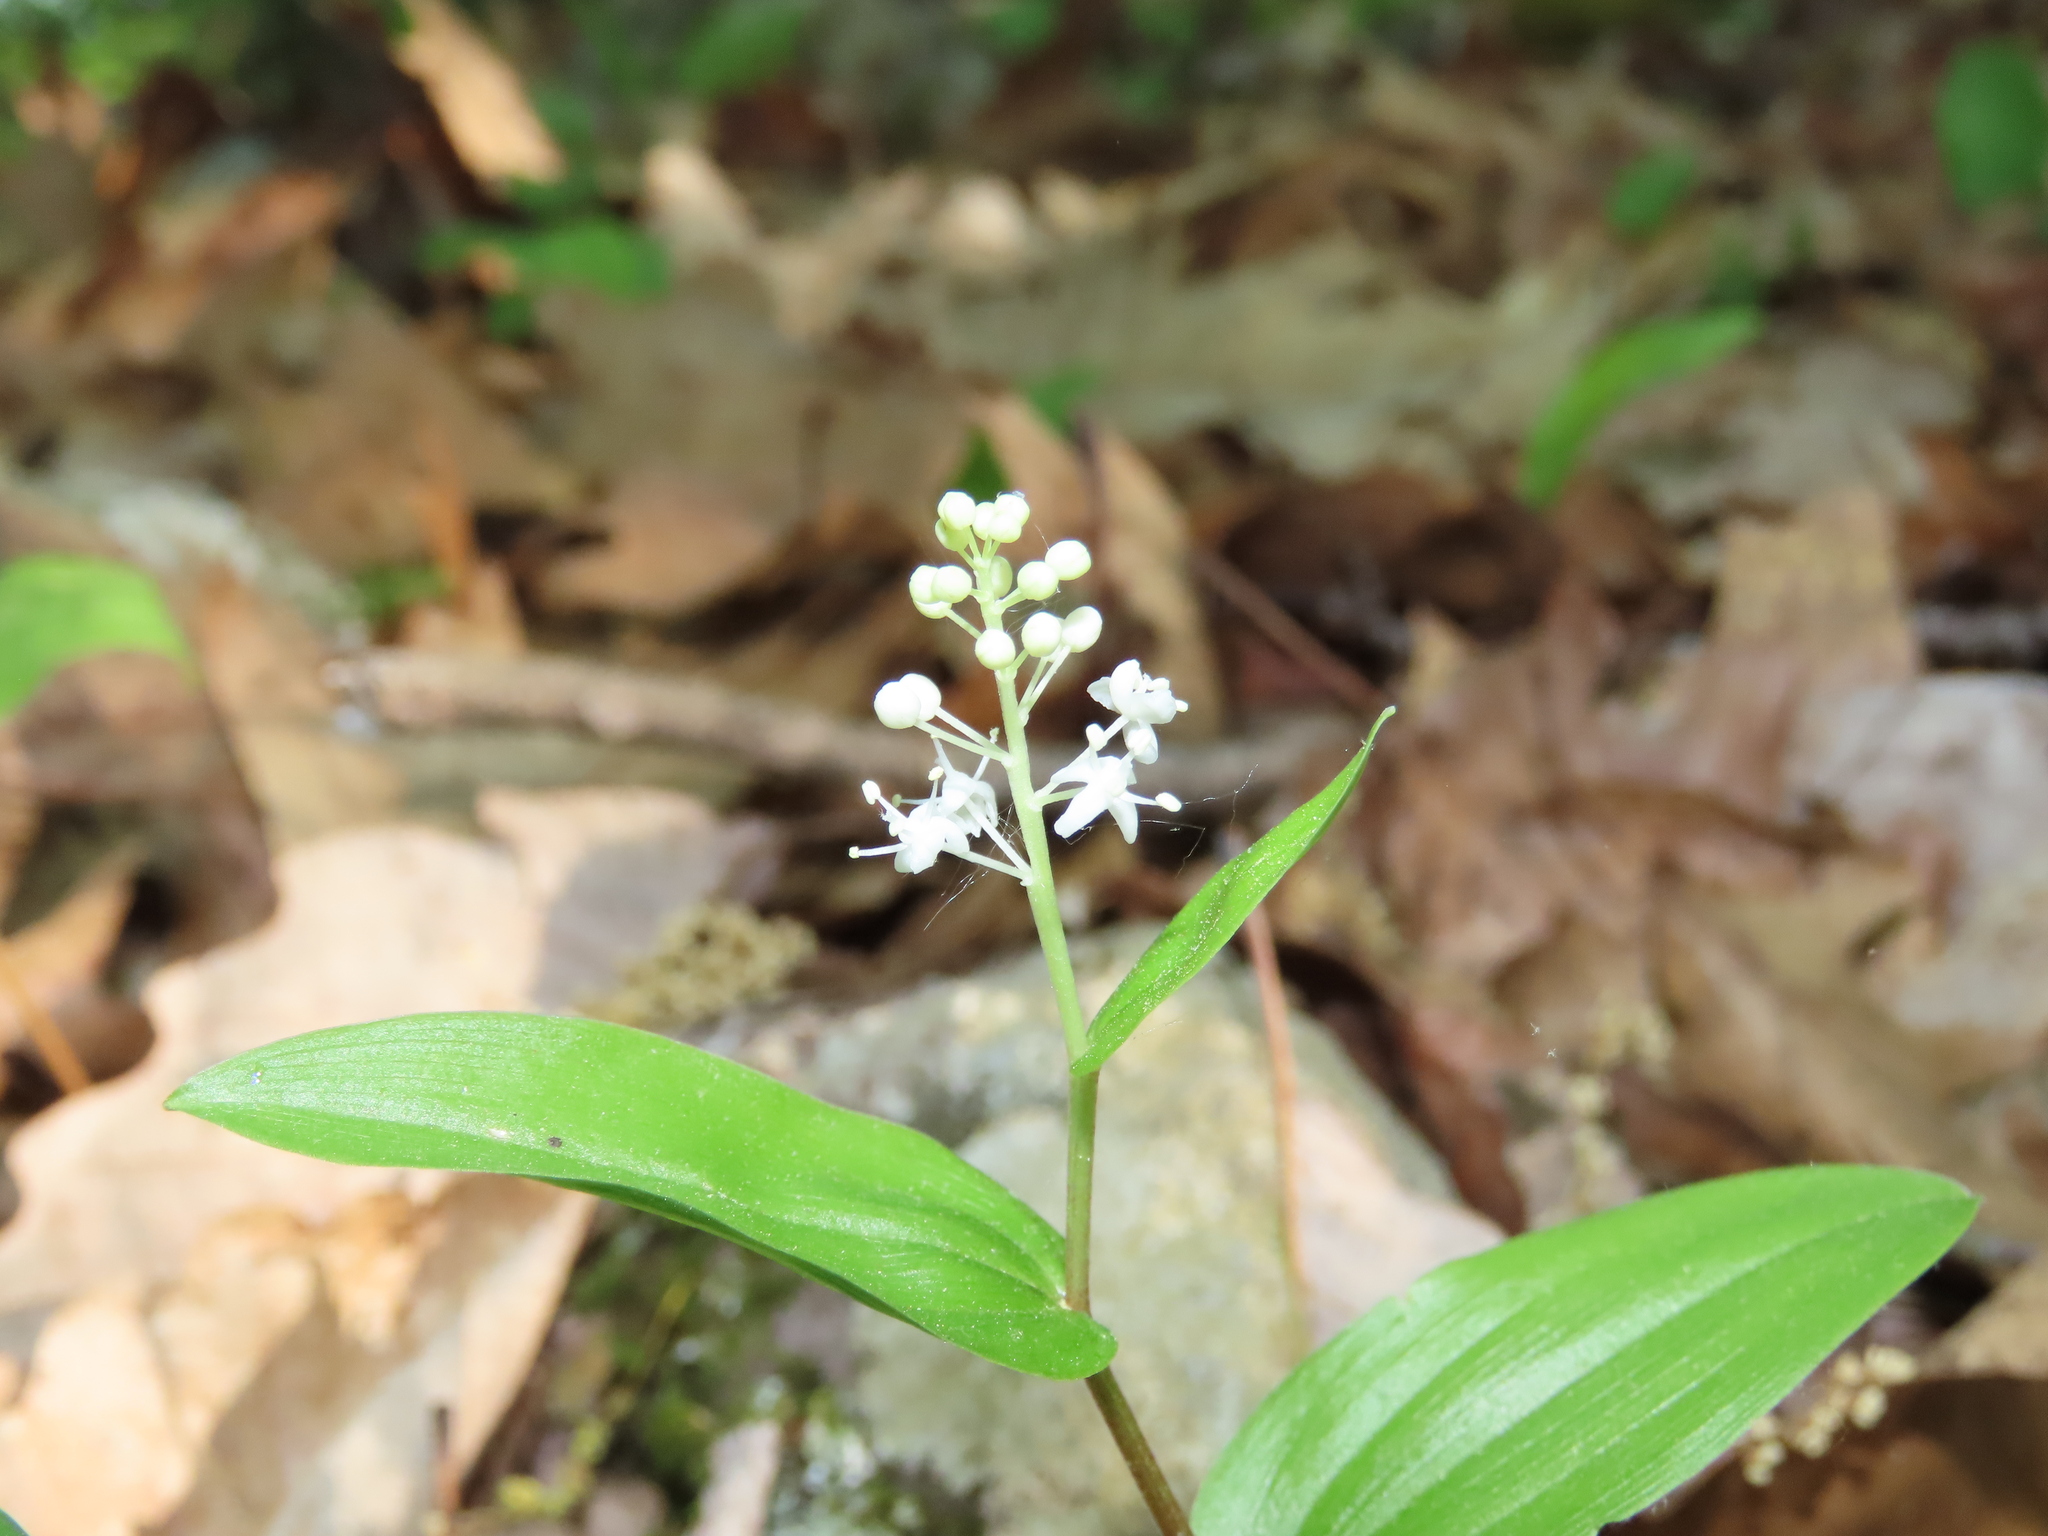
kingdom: Plantae
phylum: Tracheophyta
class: Liliopsida
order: Asparagales
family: Asparagaceae
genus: Maianthemum
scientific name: Maianthemum canadense
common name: False lily-of-the-valley
